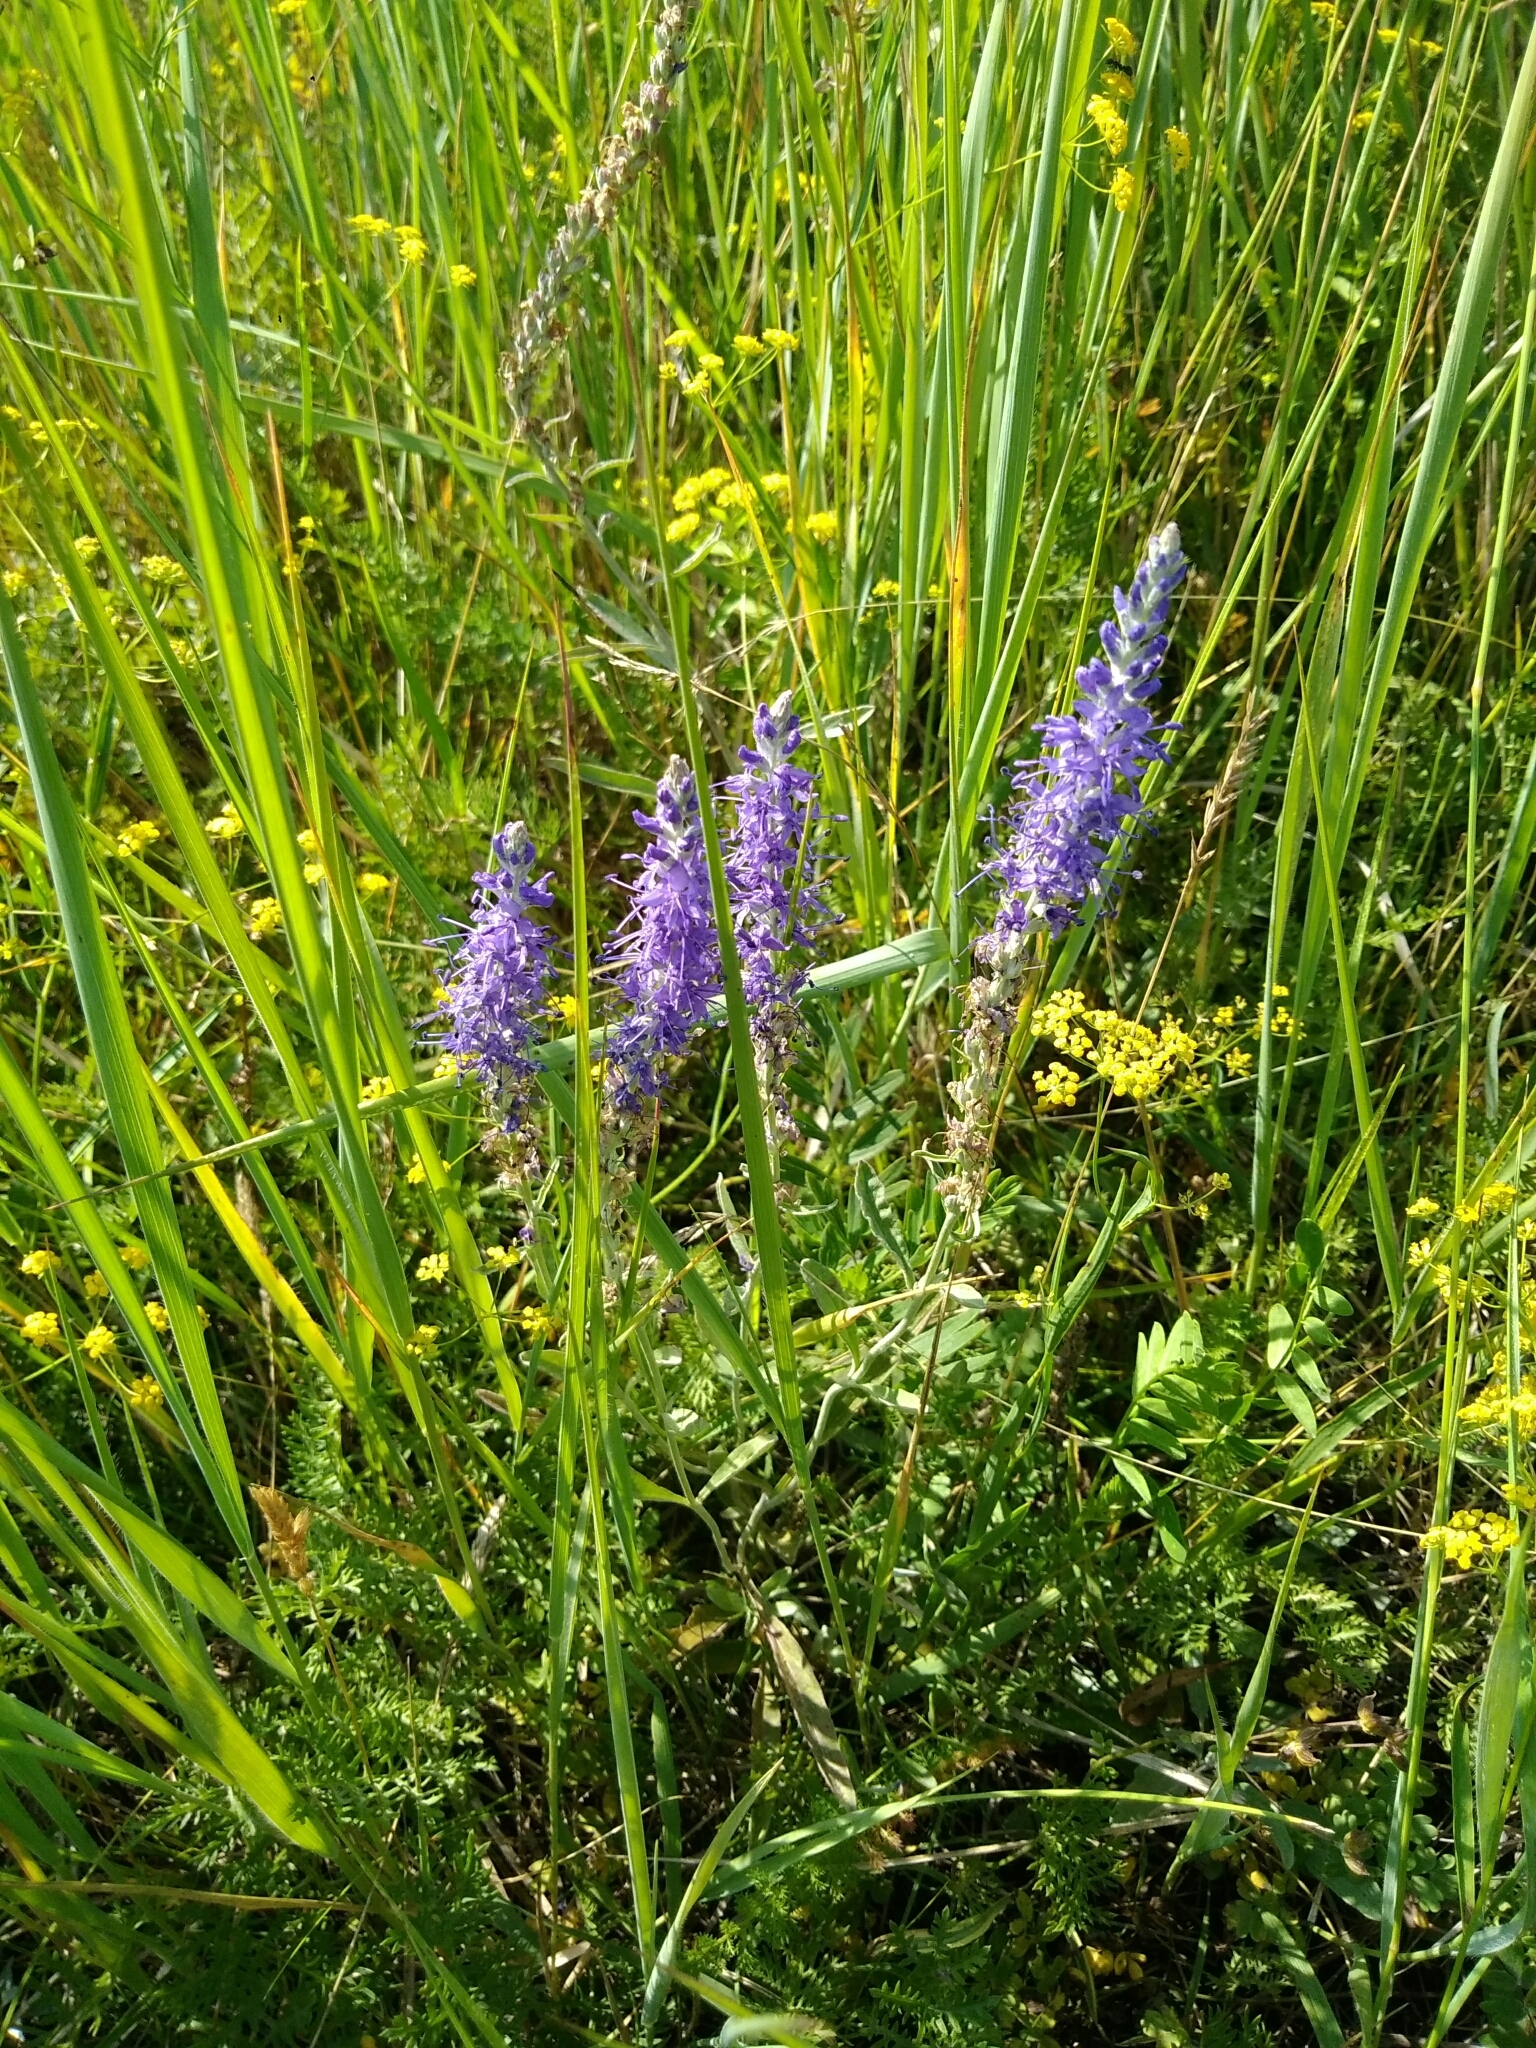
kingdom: Plantae
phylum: Tracheophyta
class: Magnoliopsida
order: Lamiales
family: Plantaginaceae
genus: Veronica
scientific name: Veronica longifolia
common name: Garden speedwell
